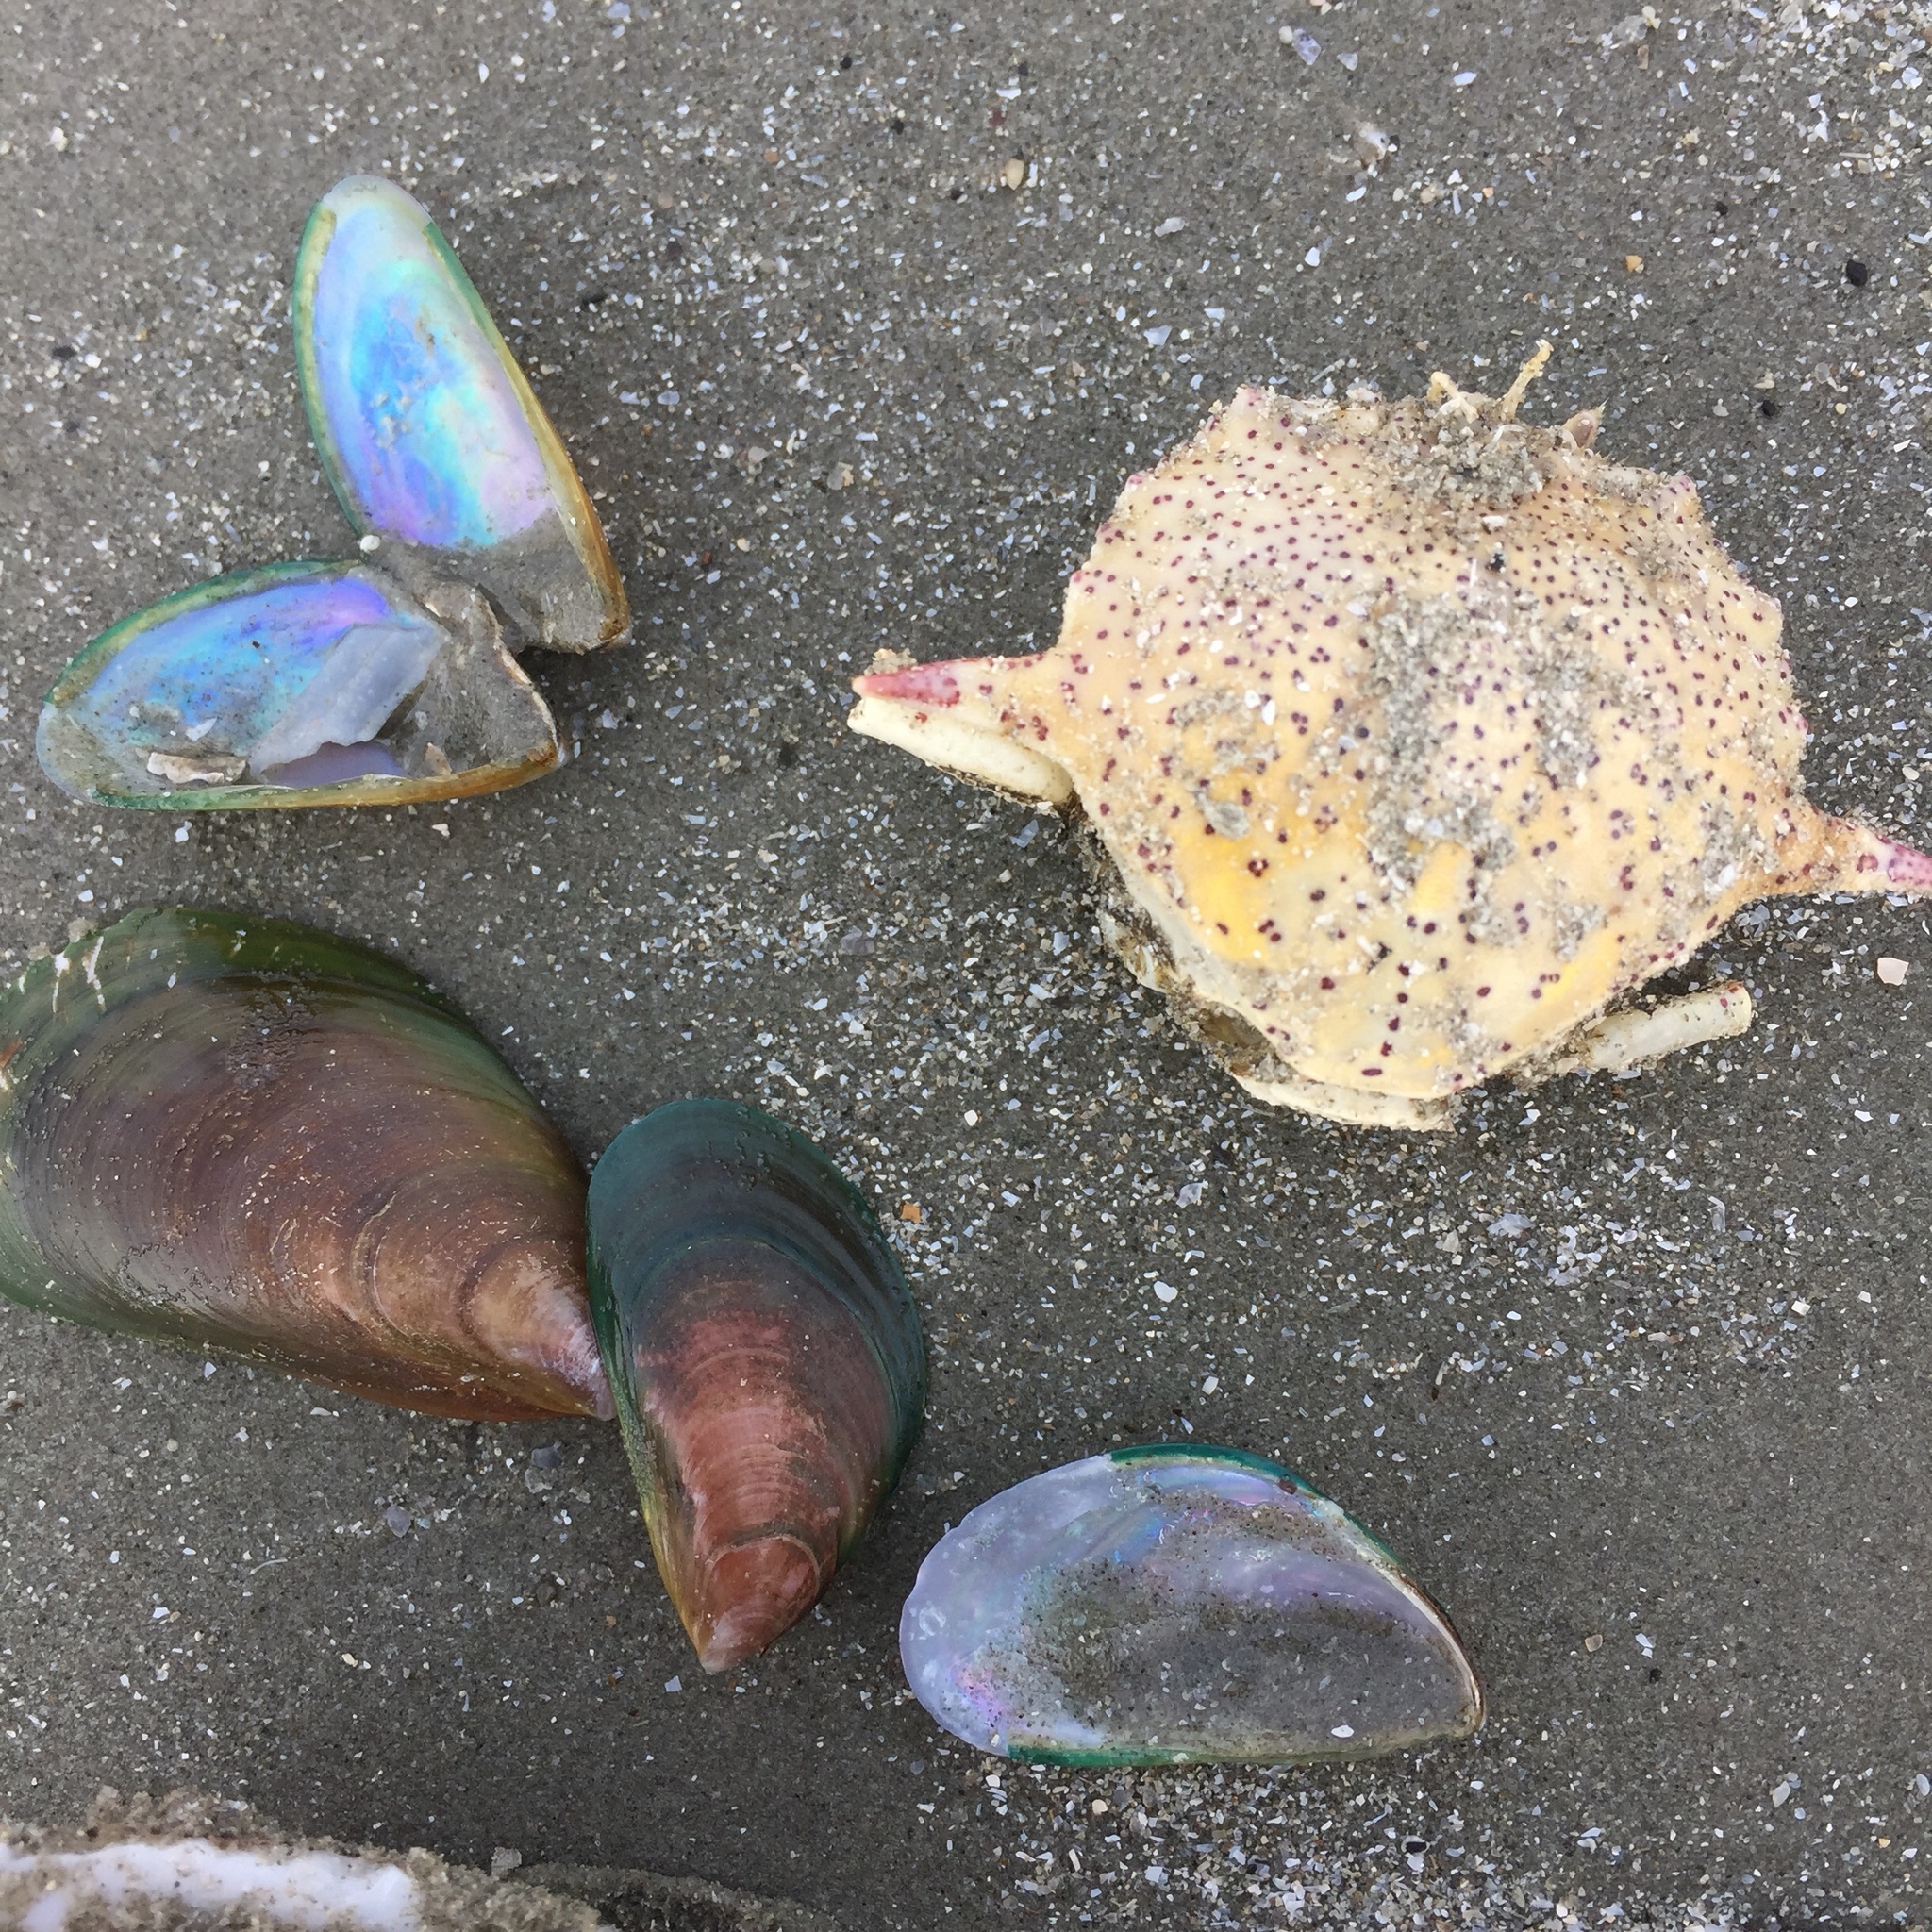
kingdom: Animalia
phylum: Mollusca
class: Bivalvia
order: Mytilida
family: Mytilidae
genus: Perna
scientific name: Perna viridis
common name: Green mussel
